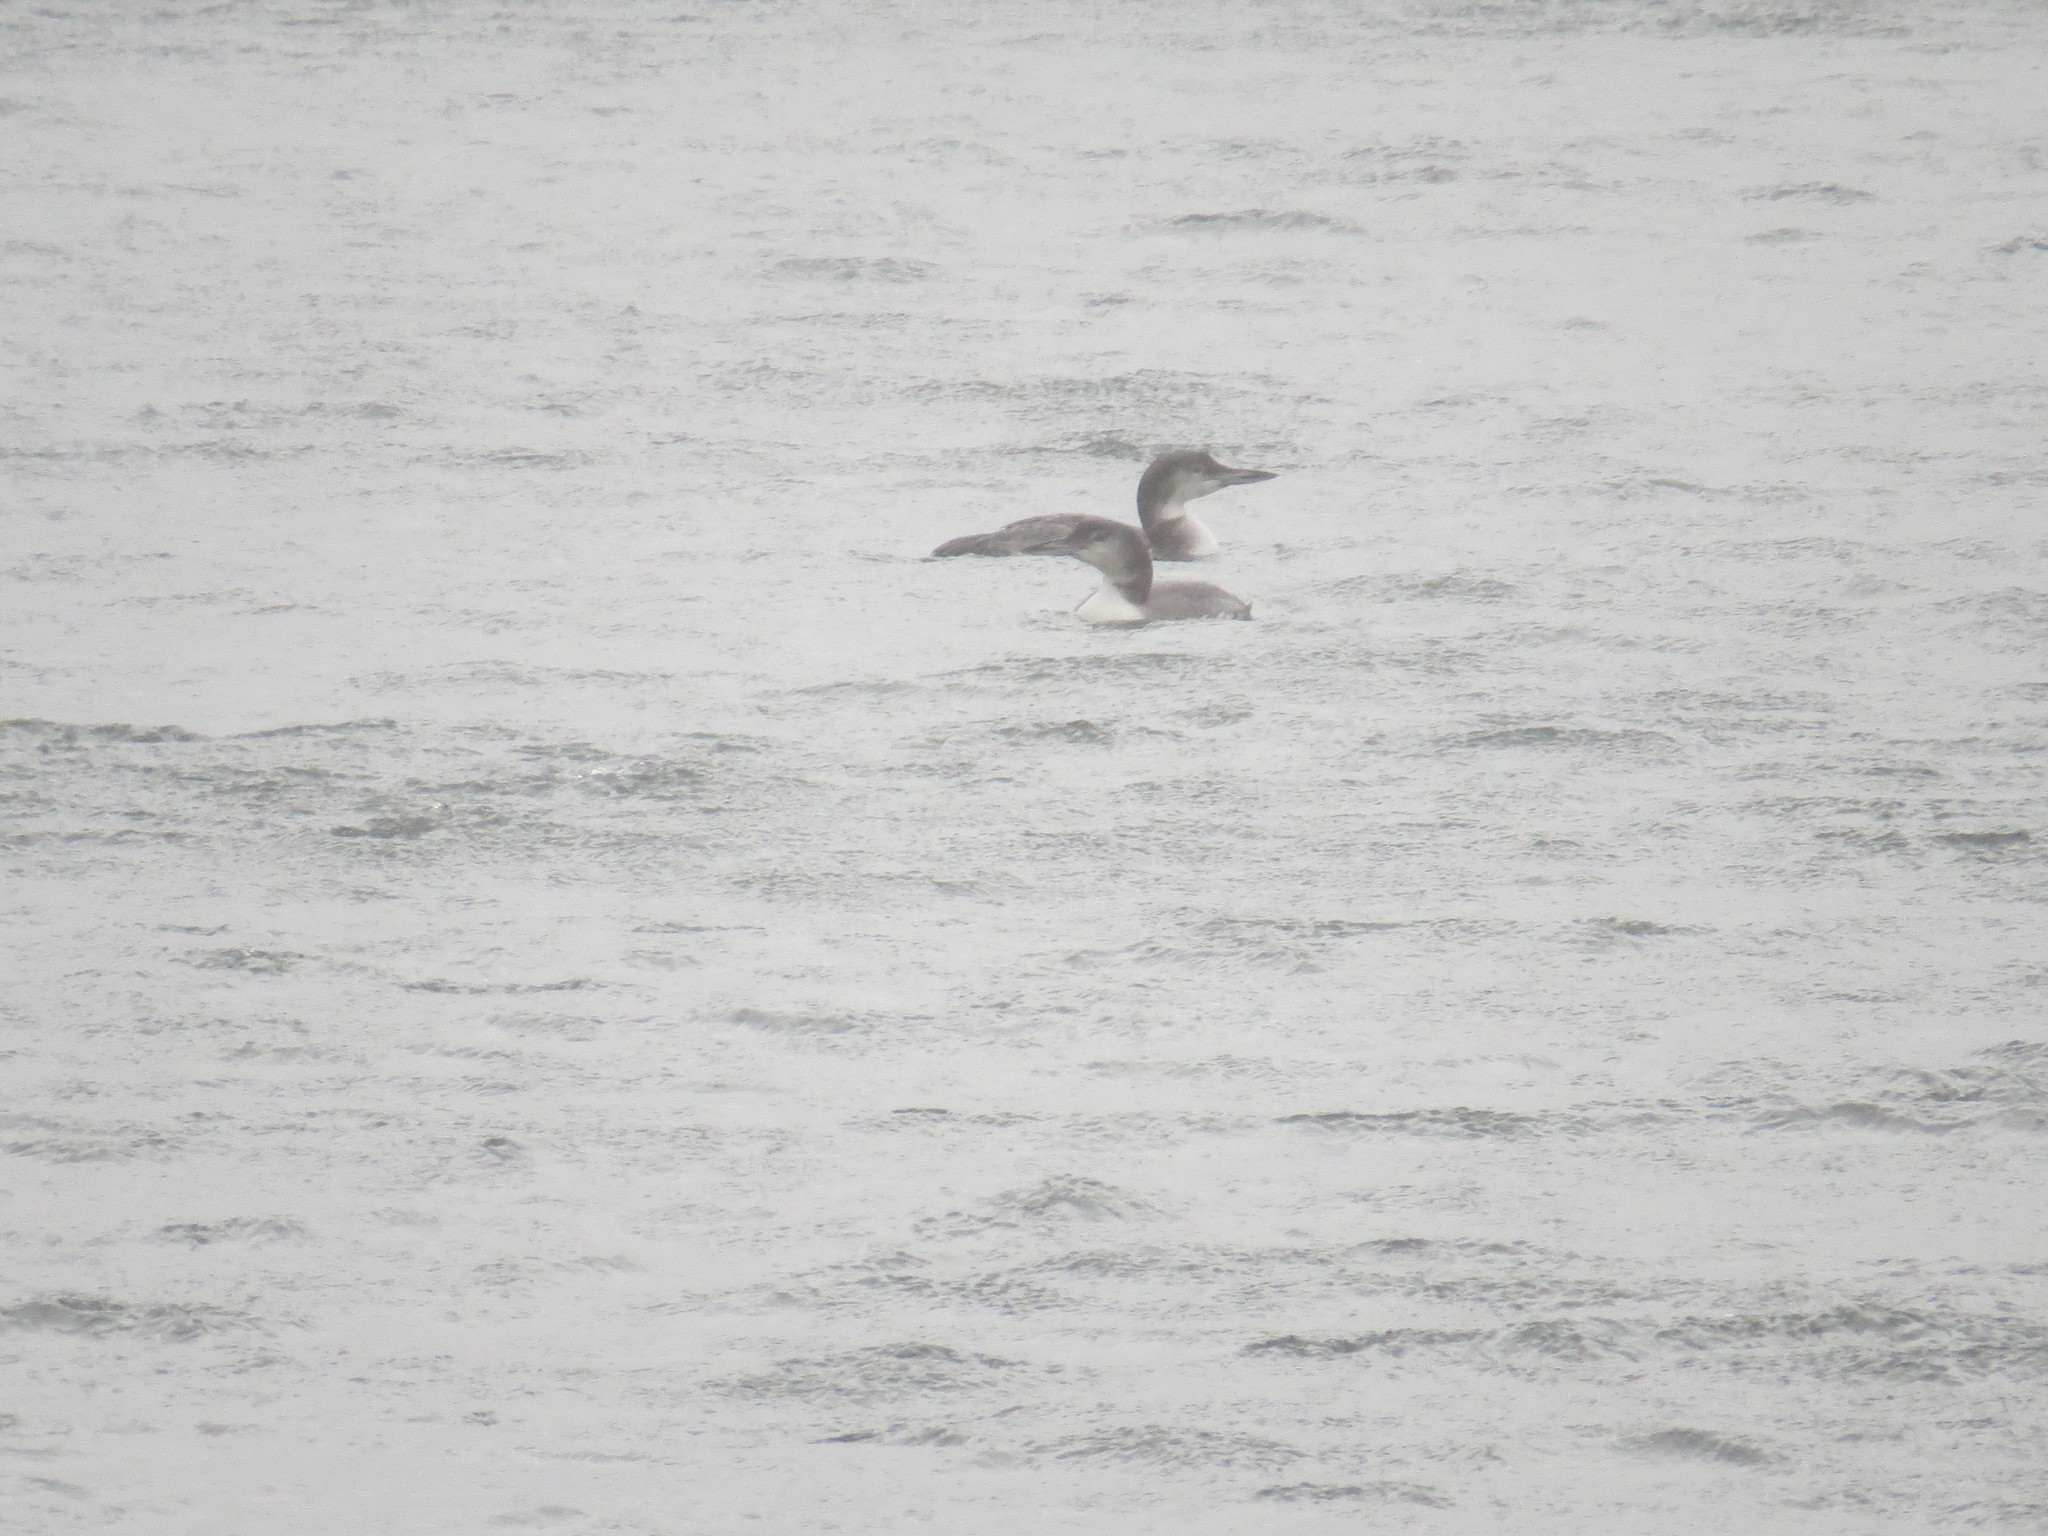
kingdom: Animalia
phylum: Chordata
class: Aves
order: Gaviiformes
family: Gaviidae
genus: Gavia
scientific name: Gavia immer
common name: Common loon
